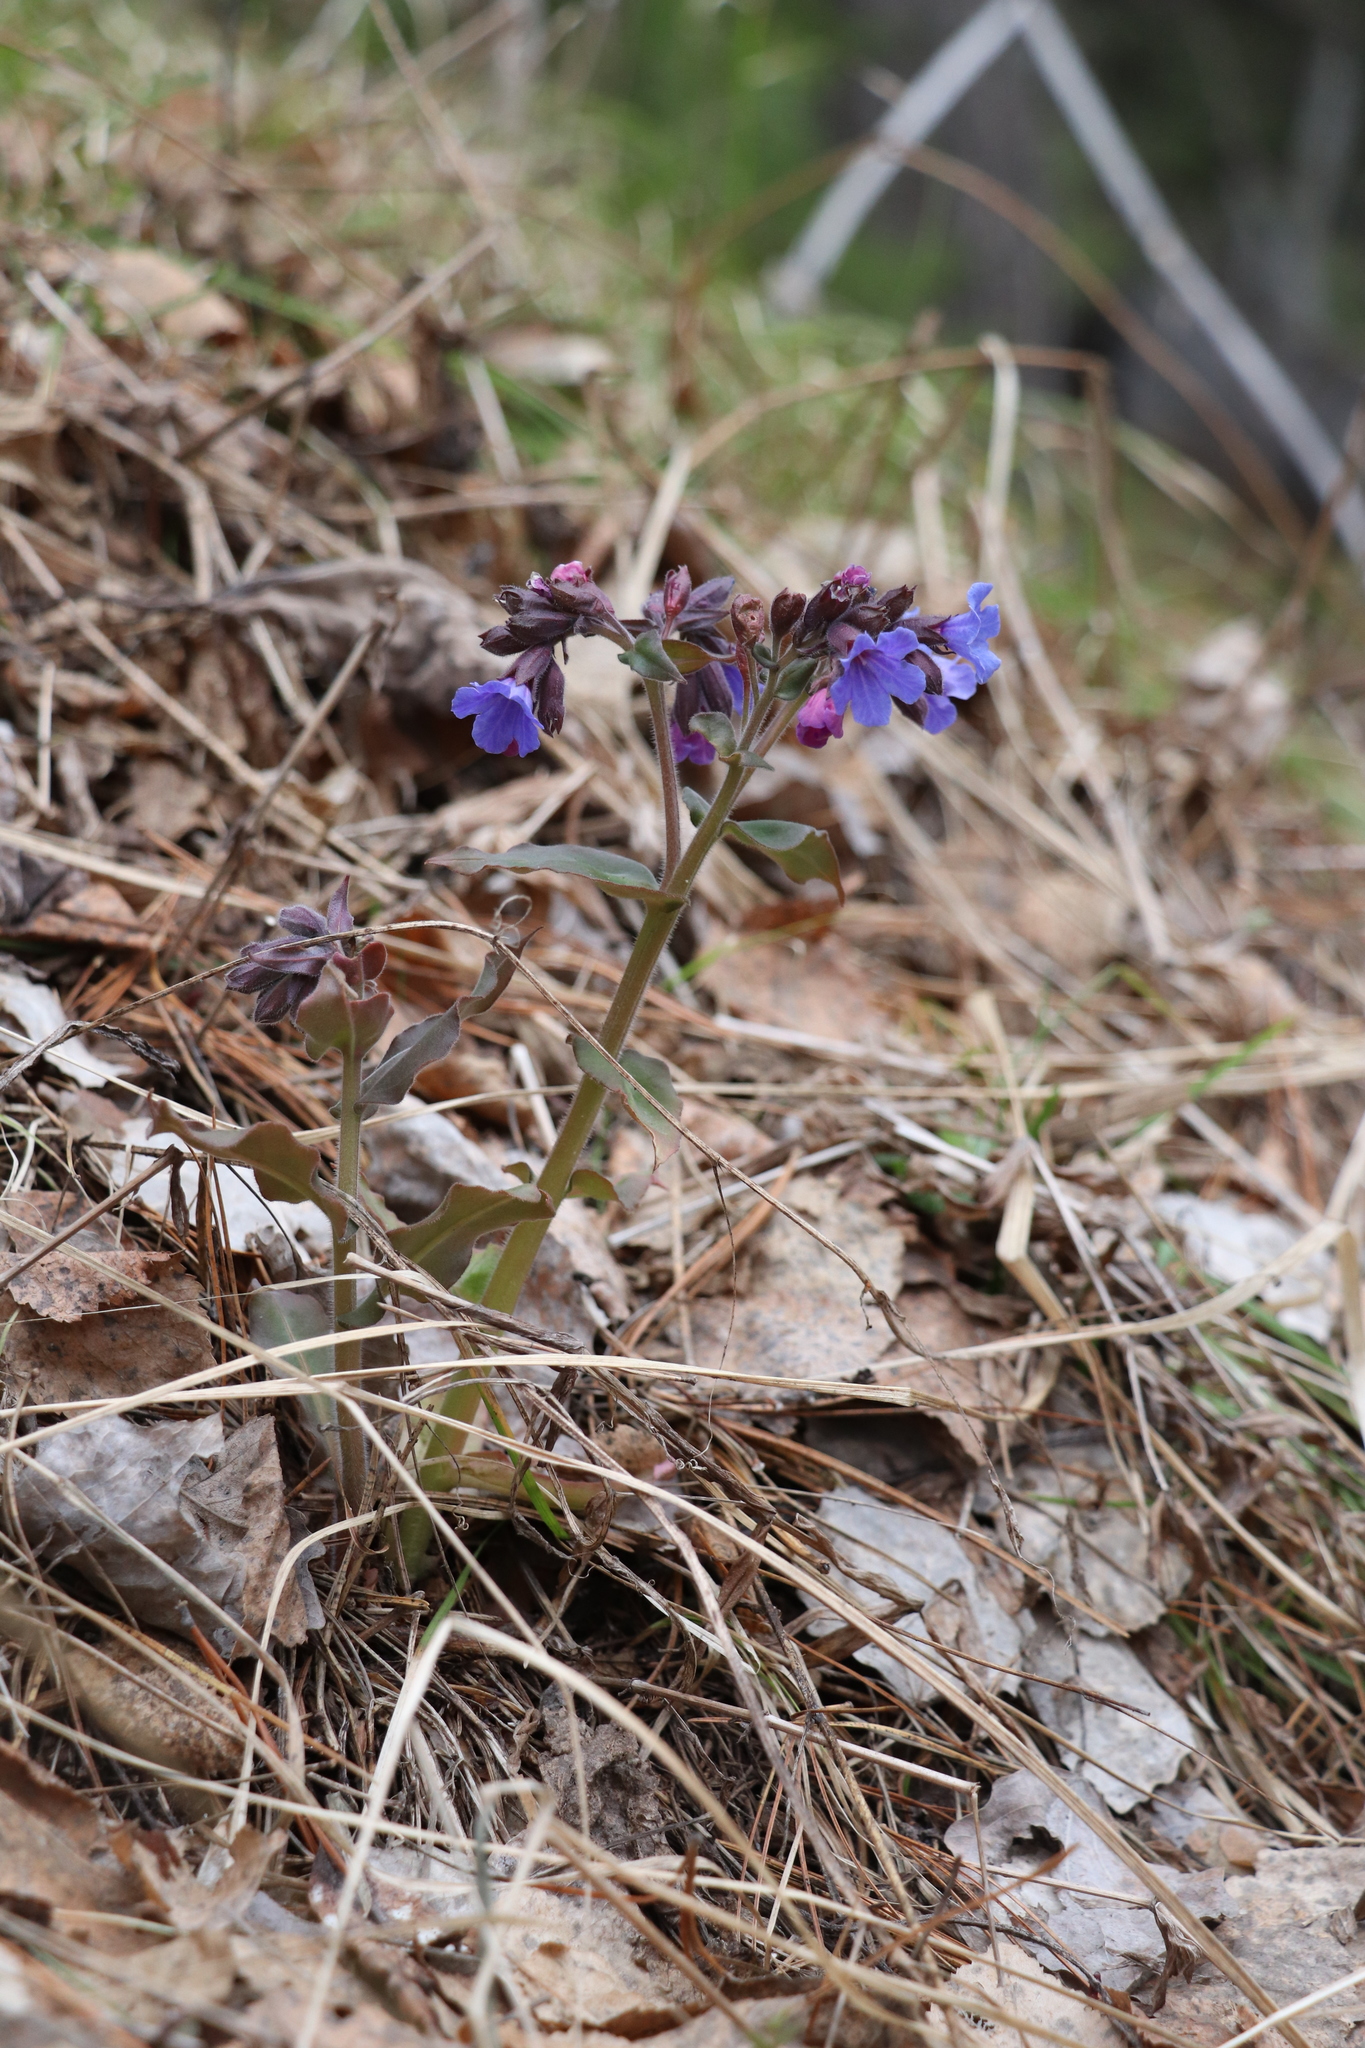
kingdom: Plantae
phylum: Tracheophyta
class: Magnoliopsida
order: Boraginales
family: Boraginaceae
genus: Pulmonaria
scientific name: Pulmonaria mollis
